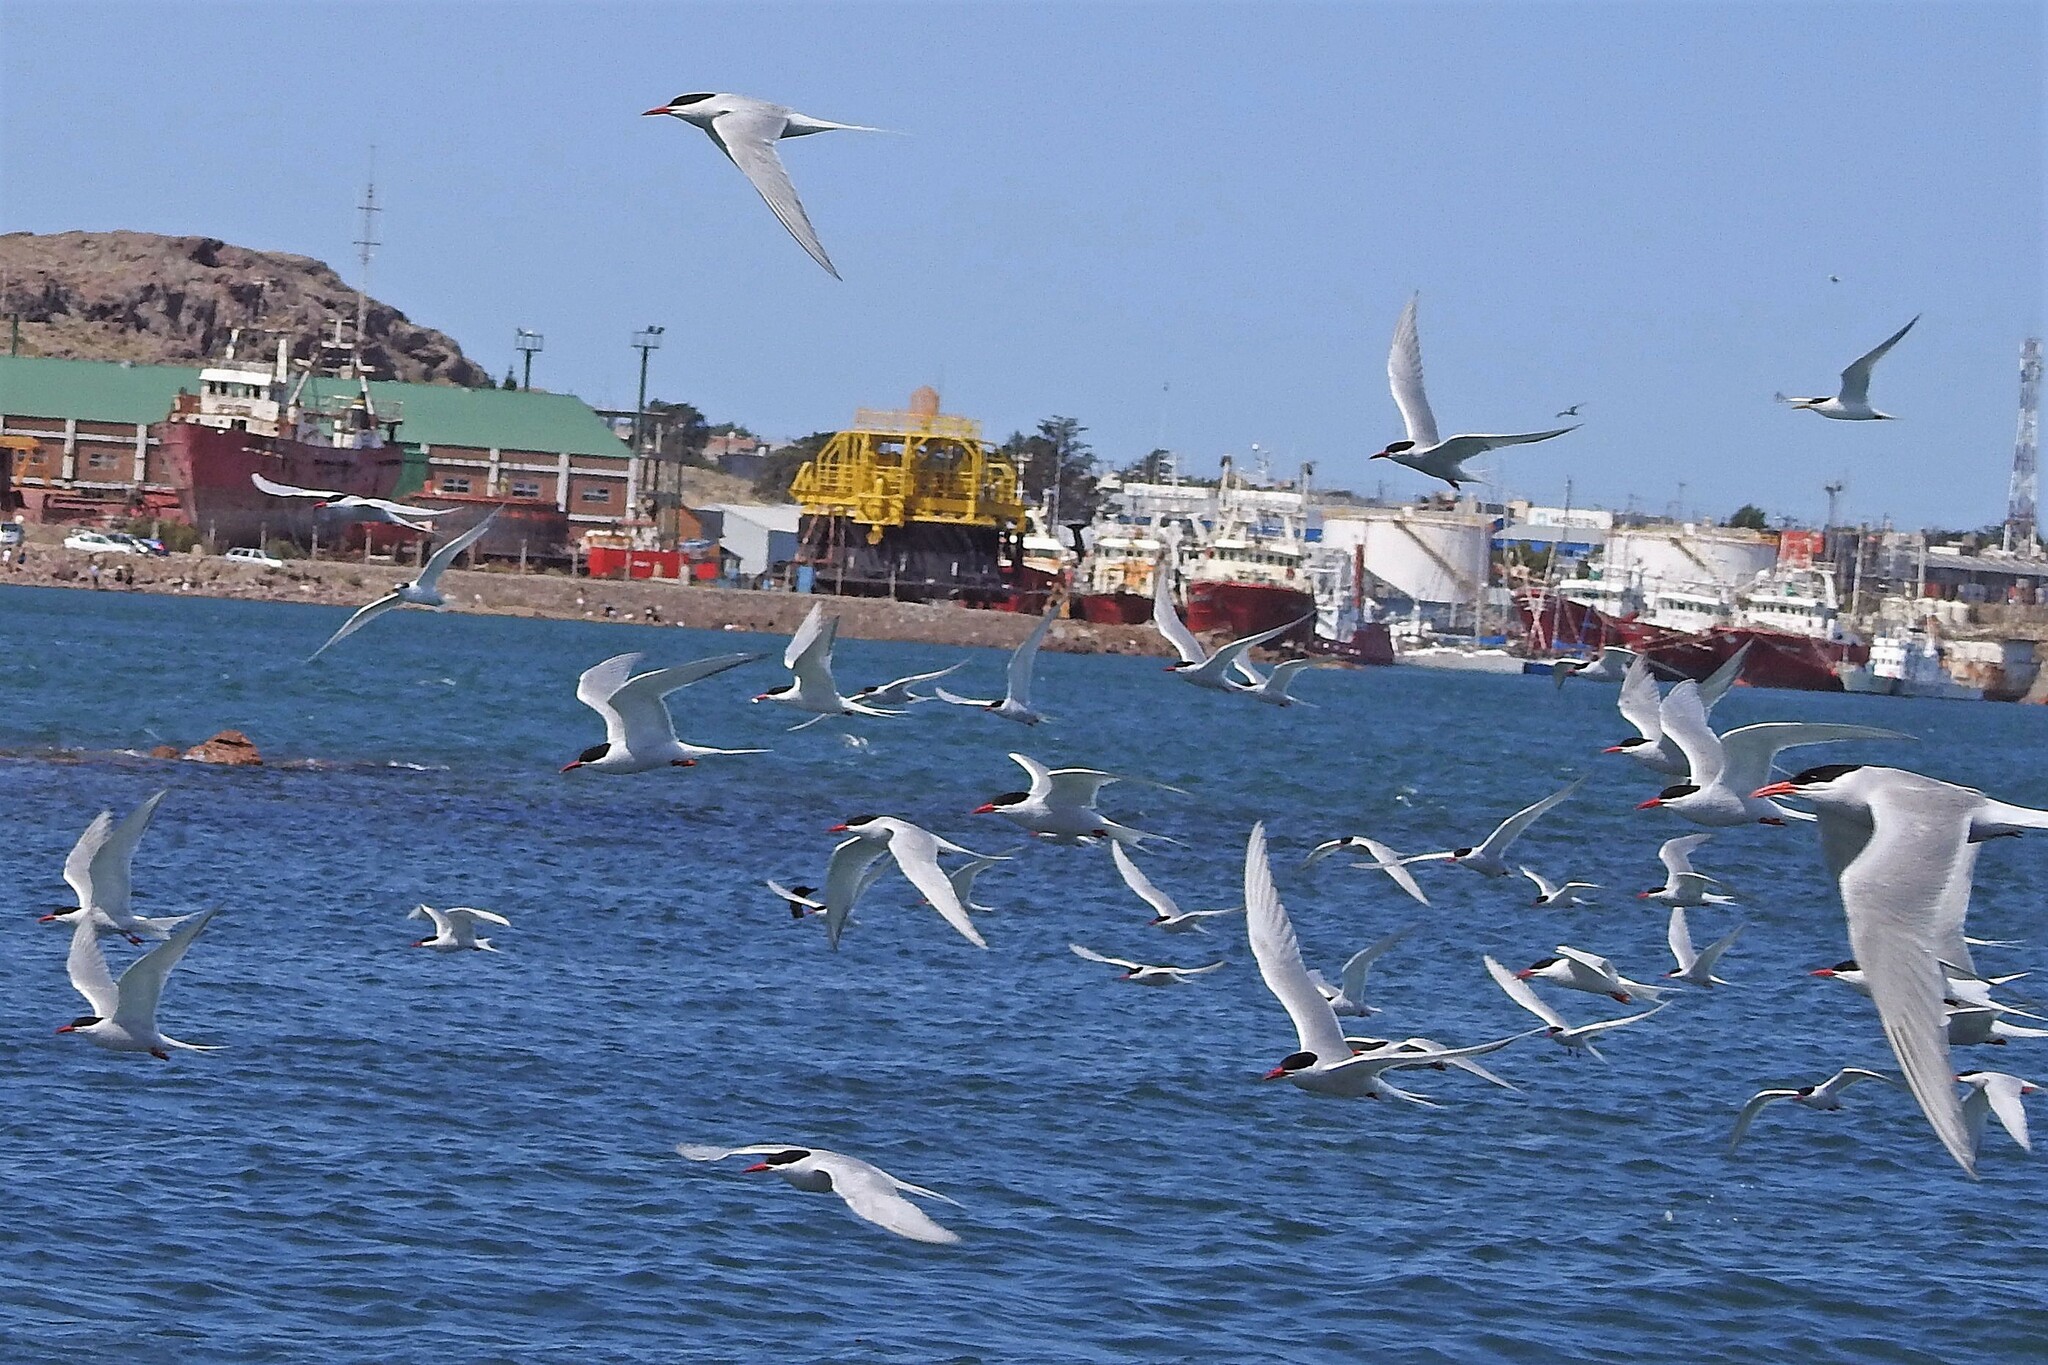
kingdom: Animalia
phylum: Chordata
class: Aves
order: Charadriiformes
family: Laridae
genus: Sterna
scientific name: Sterna hirundinacea
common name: South american tern
